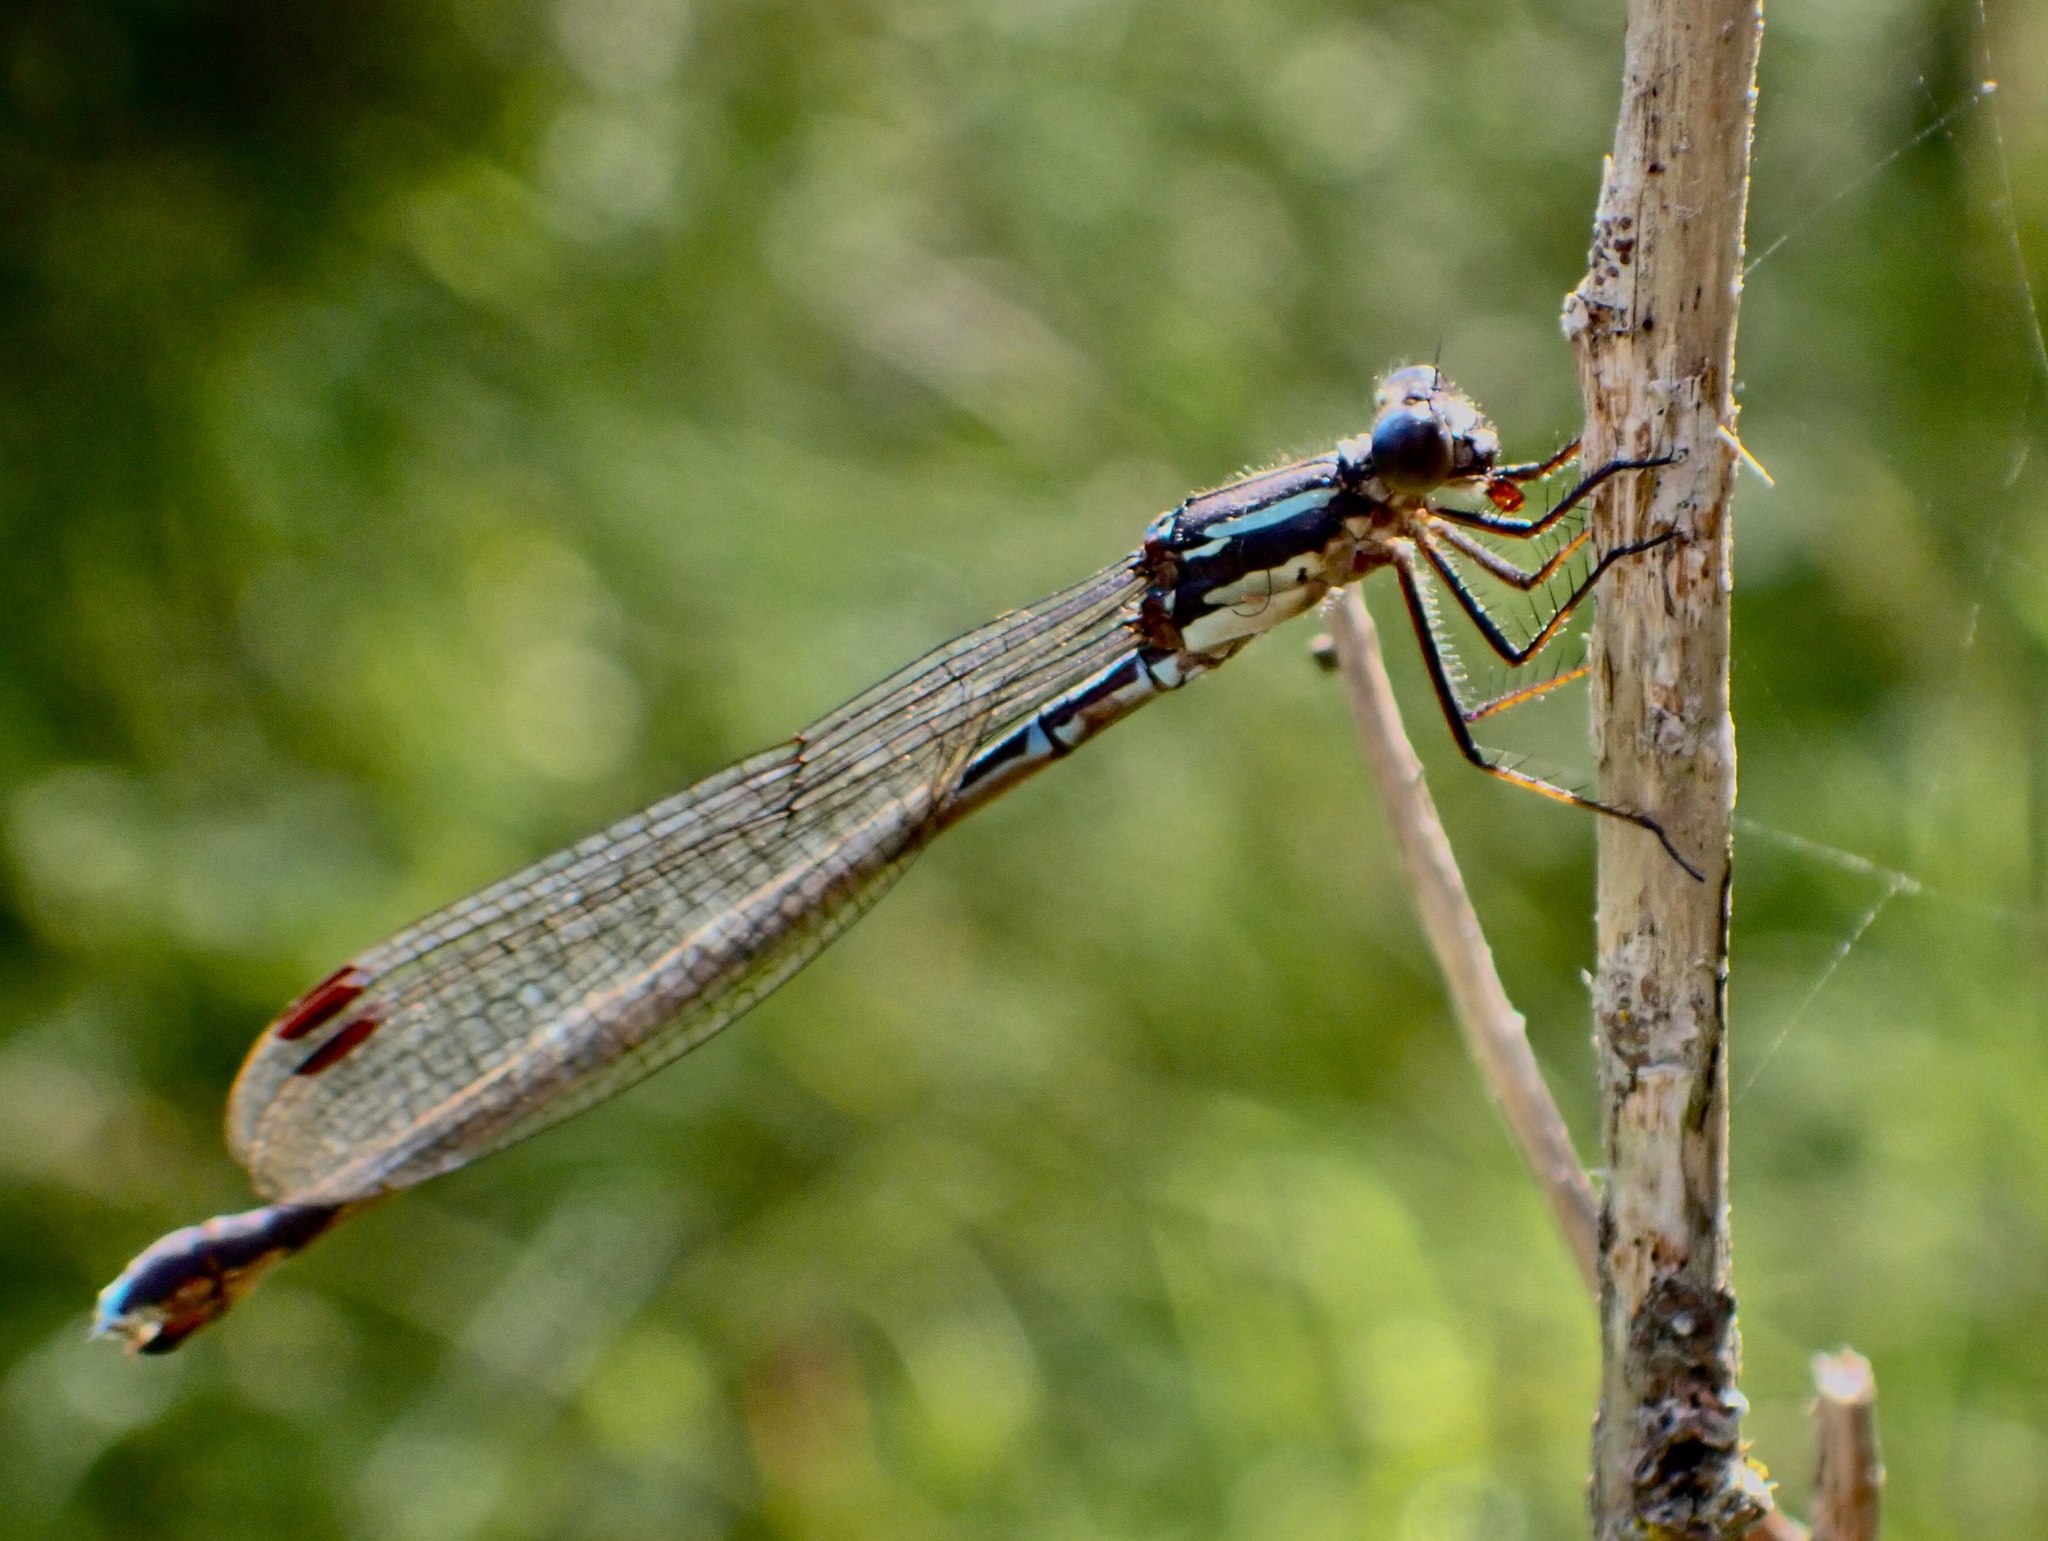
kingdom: Animalia
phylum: Arthropoda
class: Insecta
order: Odonata
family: Lestidae
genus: Austrolestes
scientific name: Austrolestes colensonis
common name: Blue damselfly
